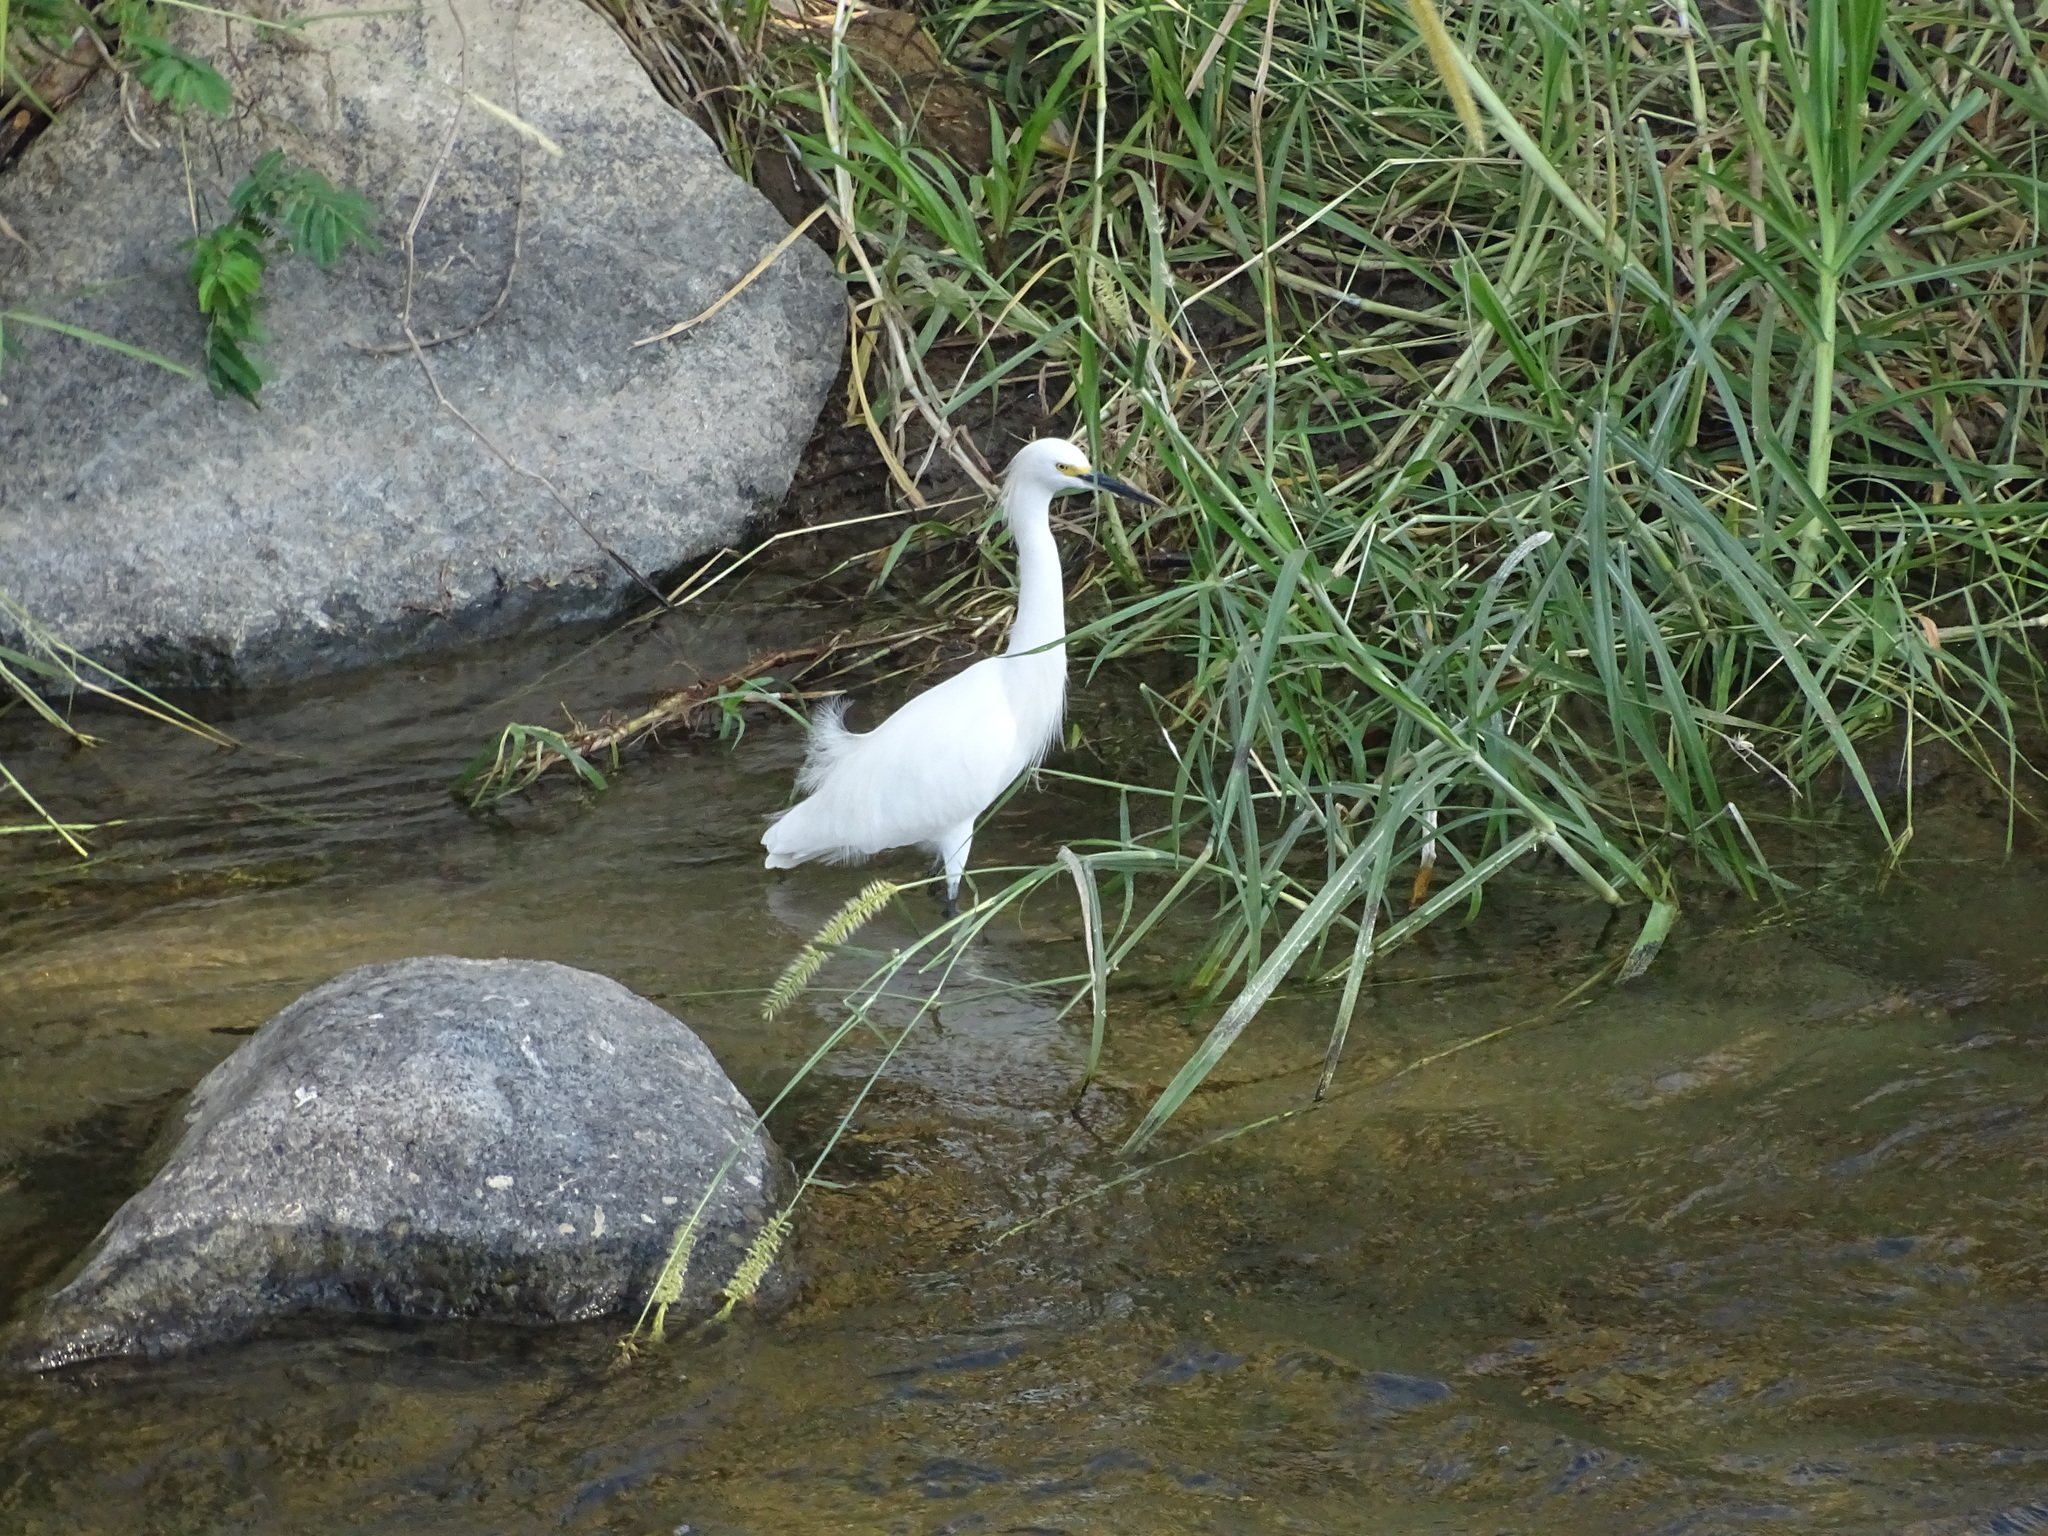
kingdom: Animalia
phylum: Chordata
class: Aves
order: Pelecaniformes
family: Ardeidae
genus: Egretta
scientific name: Egretta thula
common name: Snowy egret
